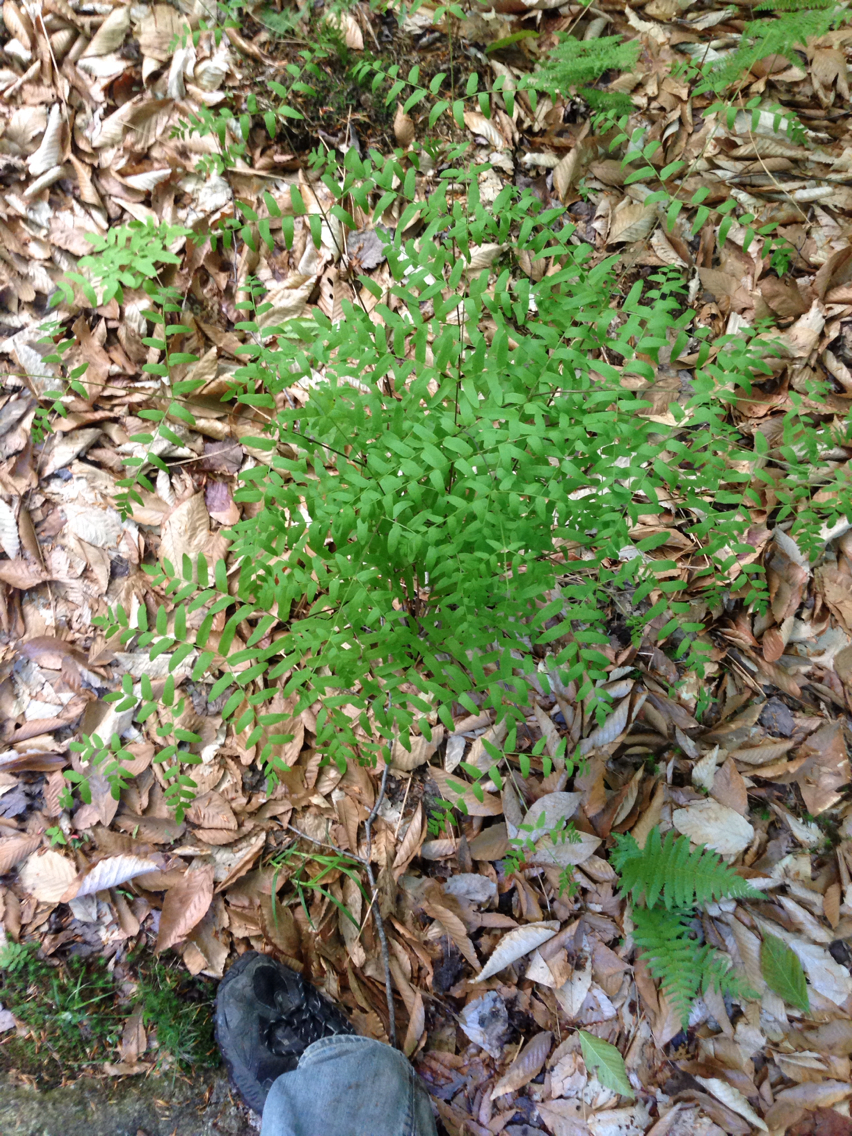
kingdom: Plantae
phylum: Tracheophyta
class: Polypodiopsida
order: Osmundales
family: Osmundaceae
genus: Osmunda
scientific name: Osmunda spectabilis
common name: American royal fern
